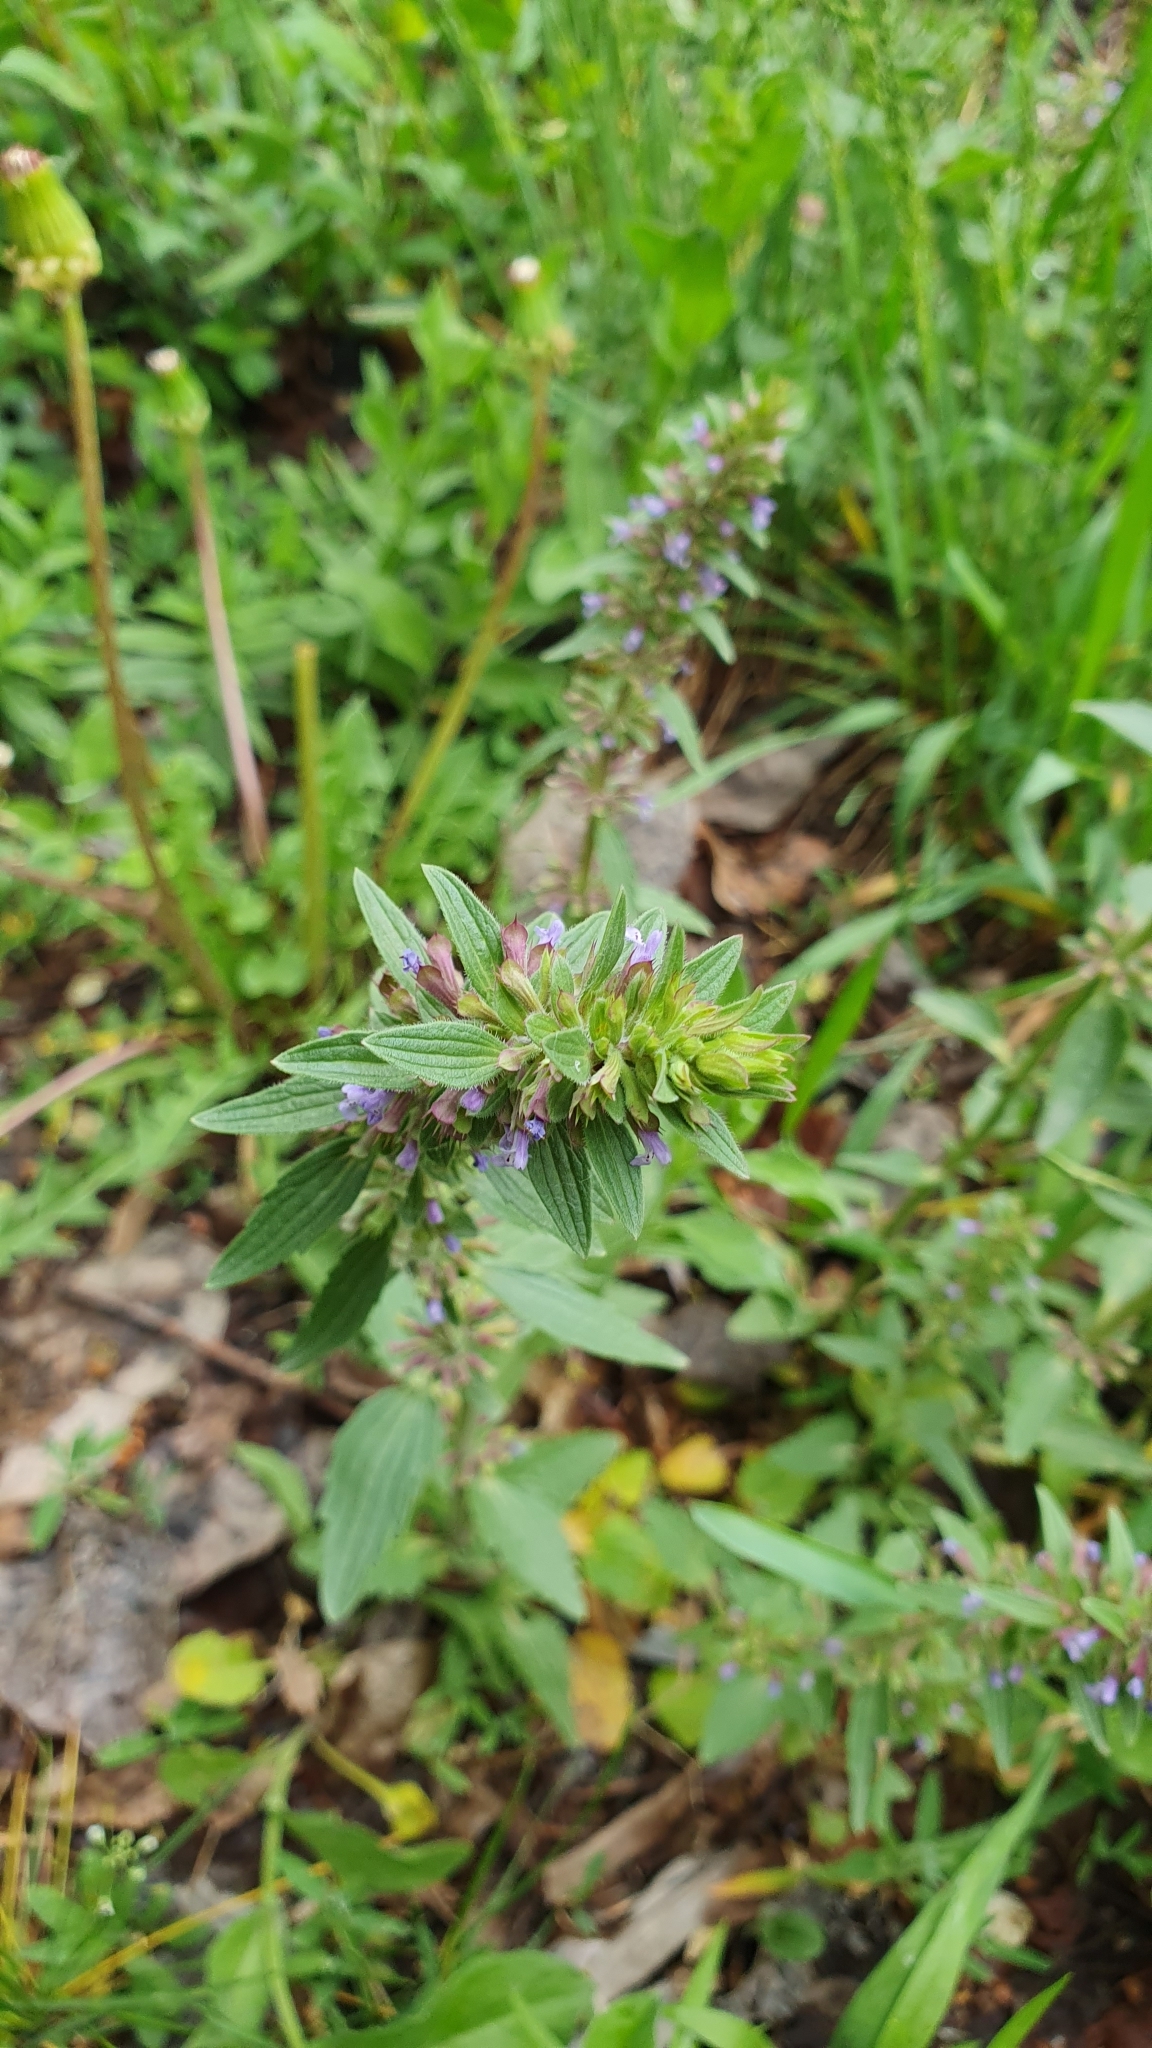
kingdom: Plantae
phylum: Tracheophyta
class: Magnoliopsida
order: Lamiales
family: Lamiaceae
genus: Dracocephalum
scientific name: Dracocephalum thymiflorum
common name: Thymeleaf dragonhead
